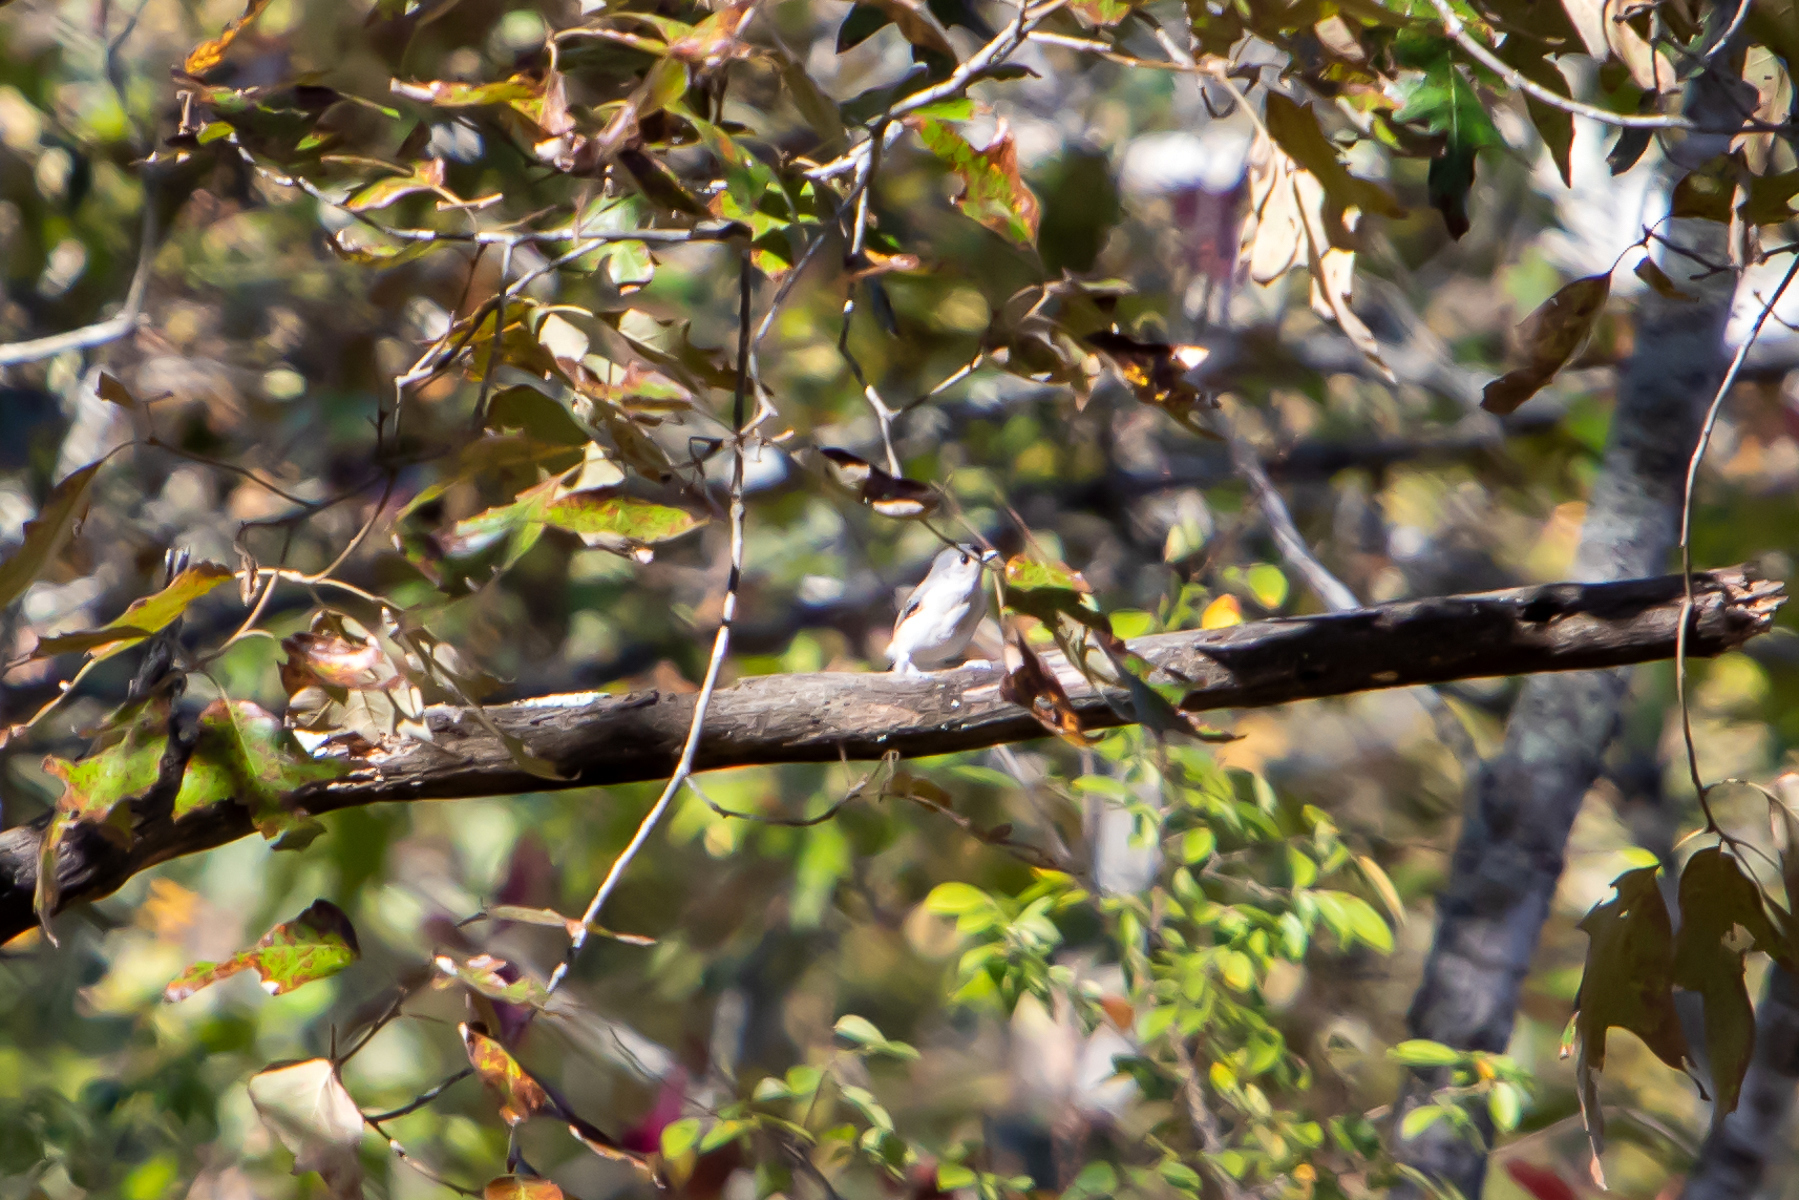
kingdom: Animalia
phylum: Chordata
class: Aves
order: Passeriformes
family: Paridae
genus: Baeolophus
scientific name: Baeolophus bicolor
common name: Tufted titmouse
